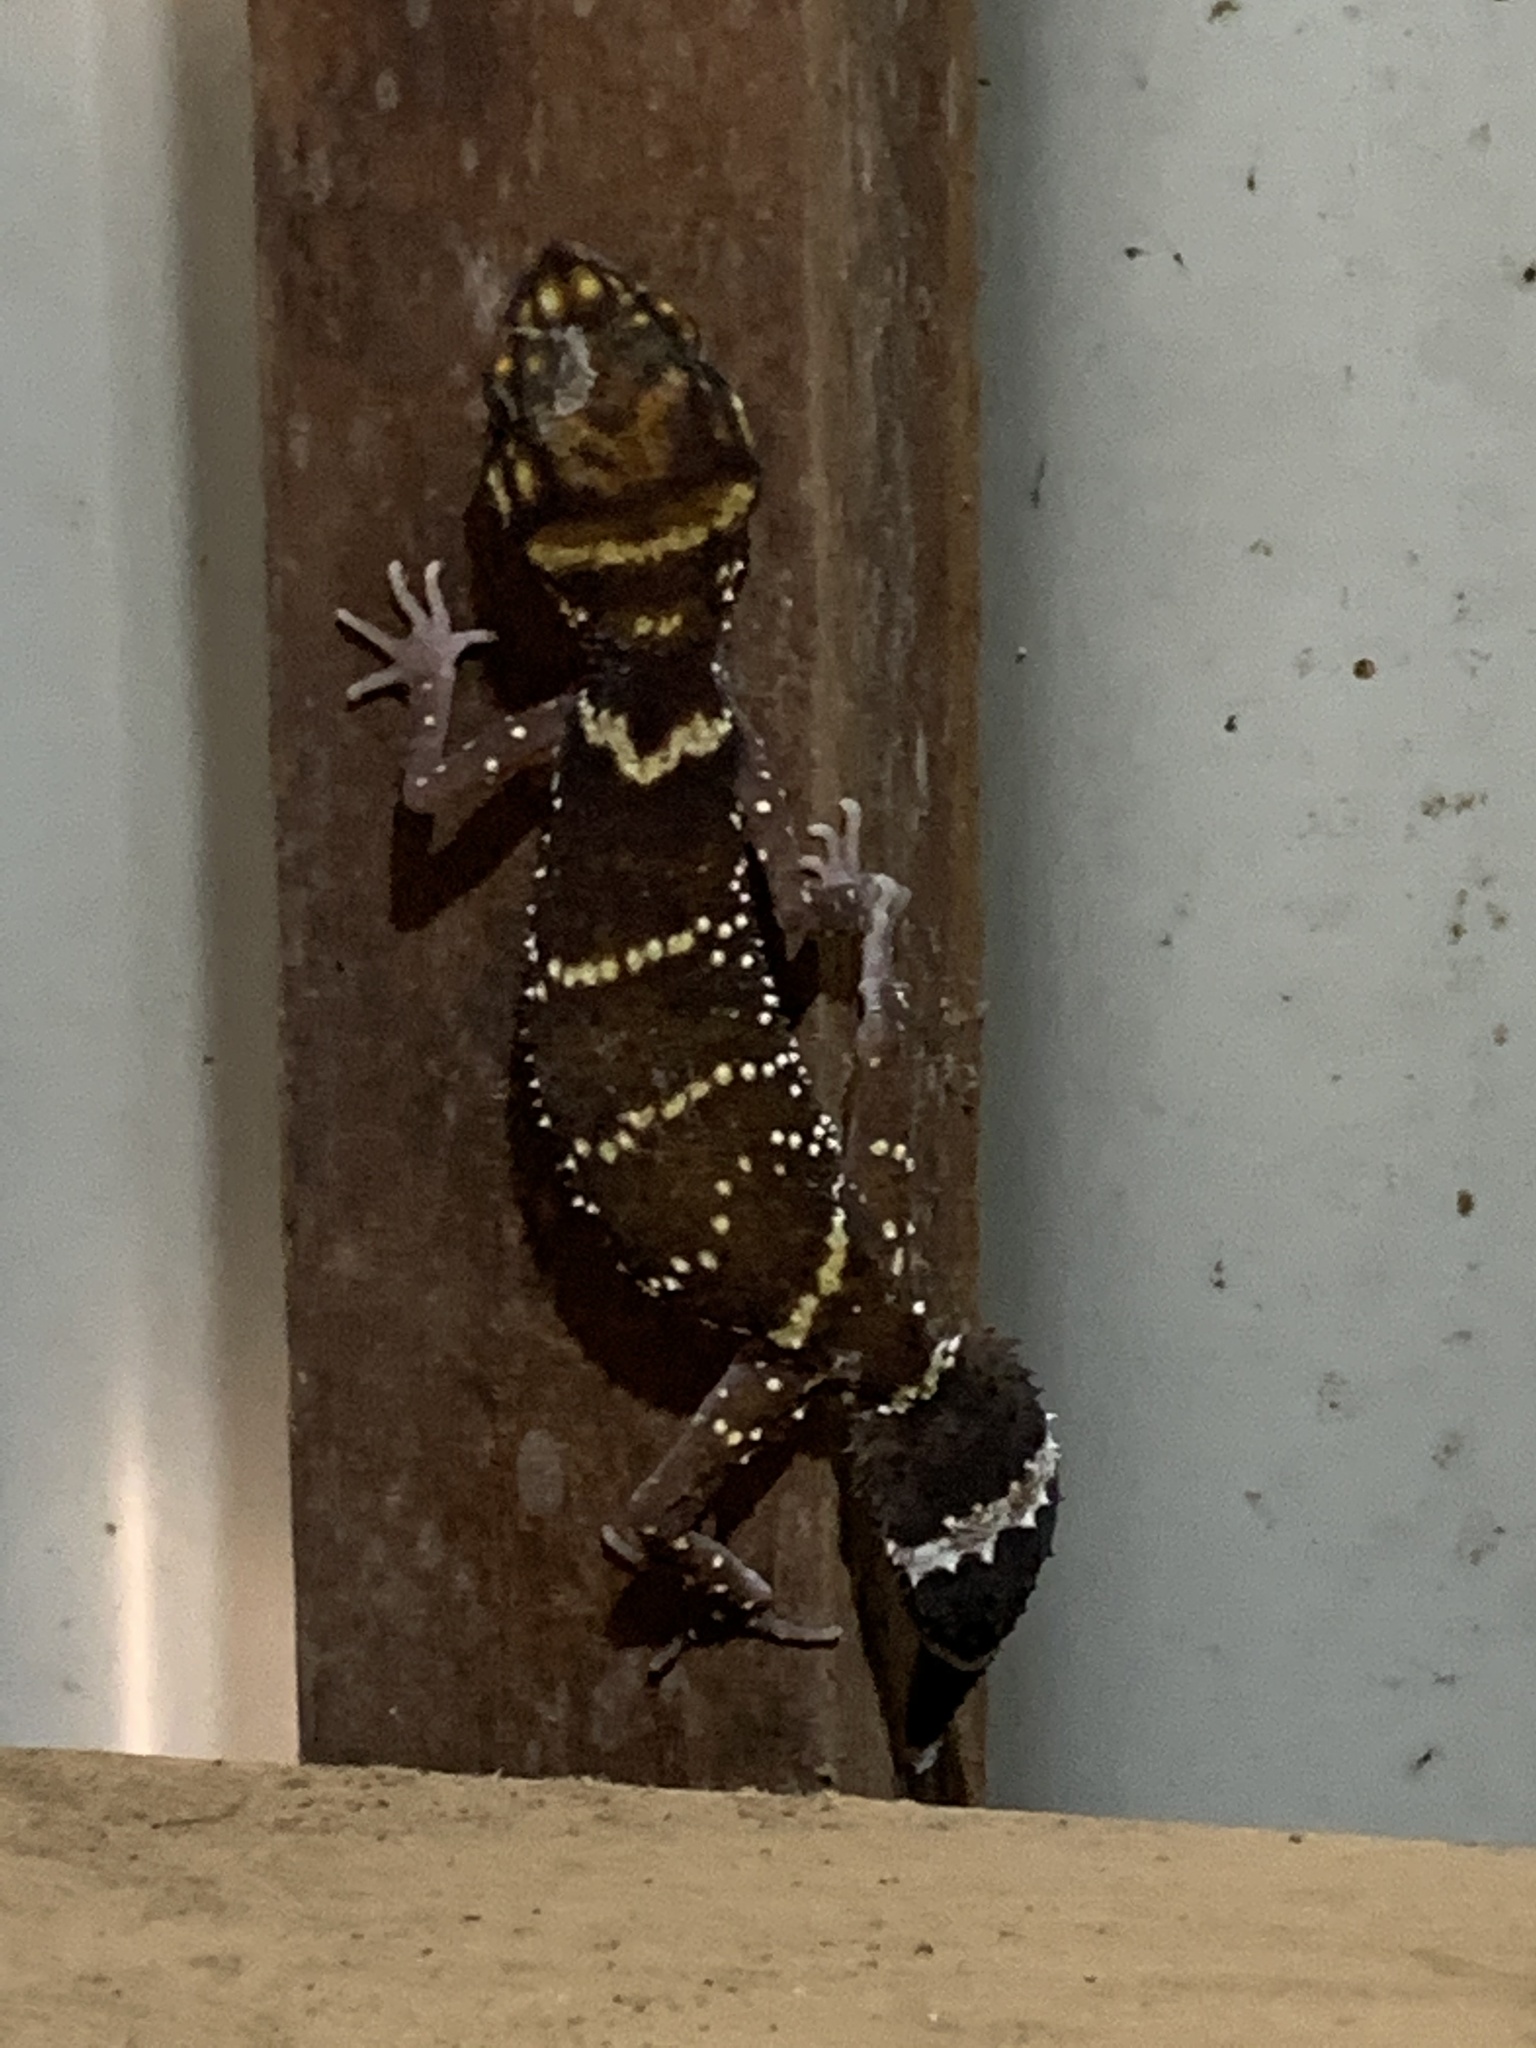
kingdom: Animalia
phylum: Chordata
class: Squamata
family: Carphodactylidae
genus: Underwoodisaurus
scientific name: Underwoodisaurus milii
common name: Barking gecko
